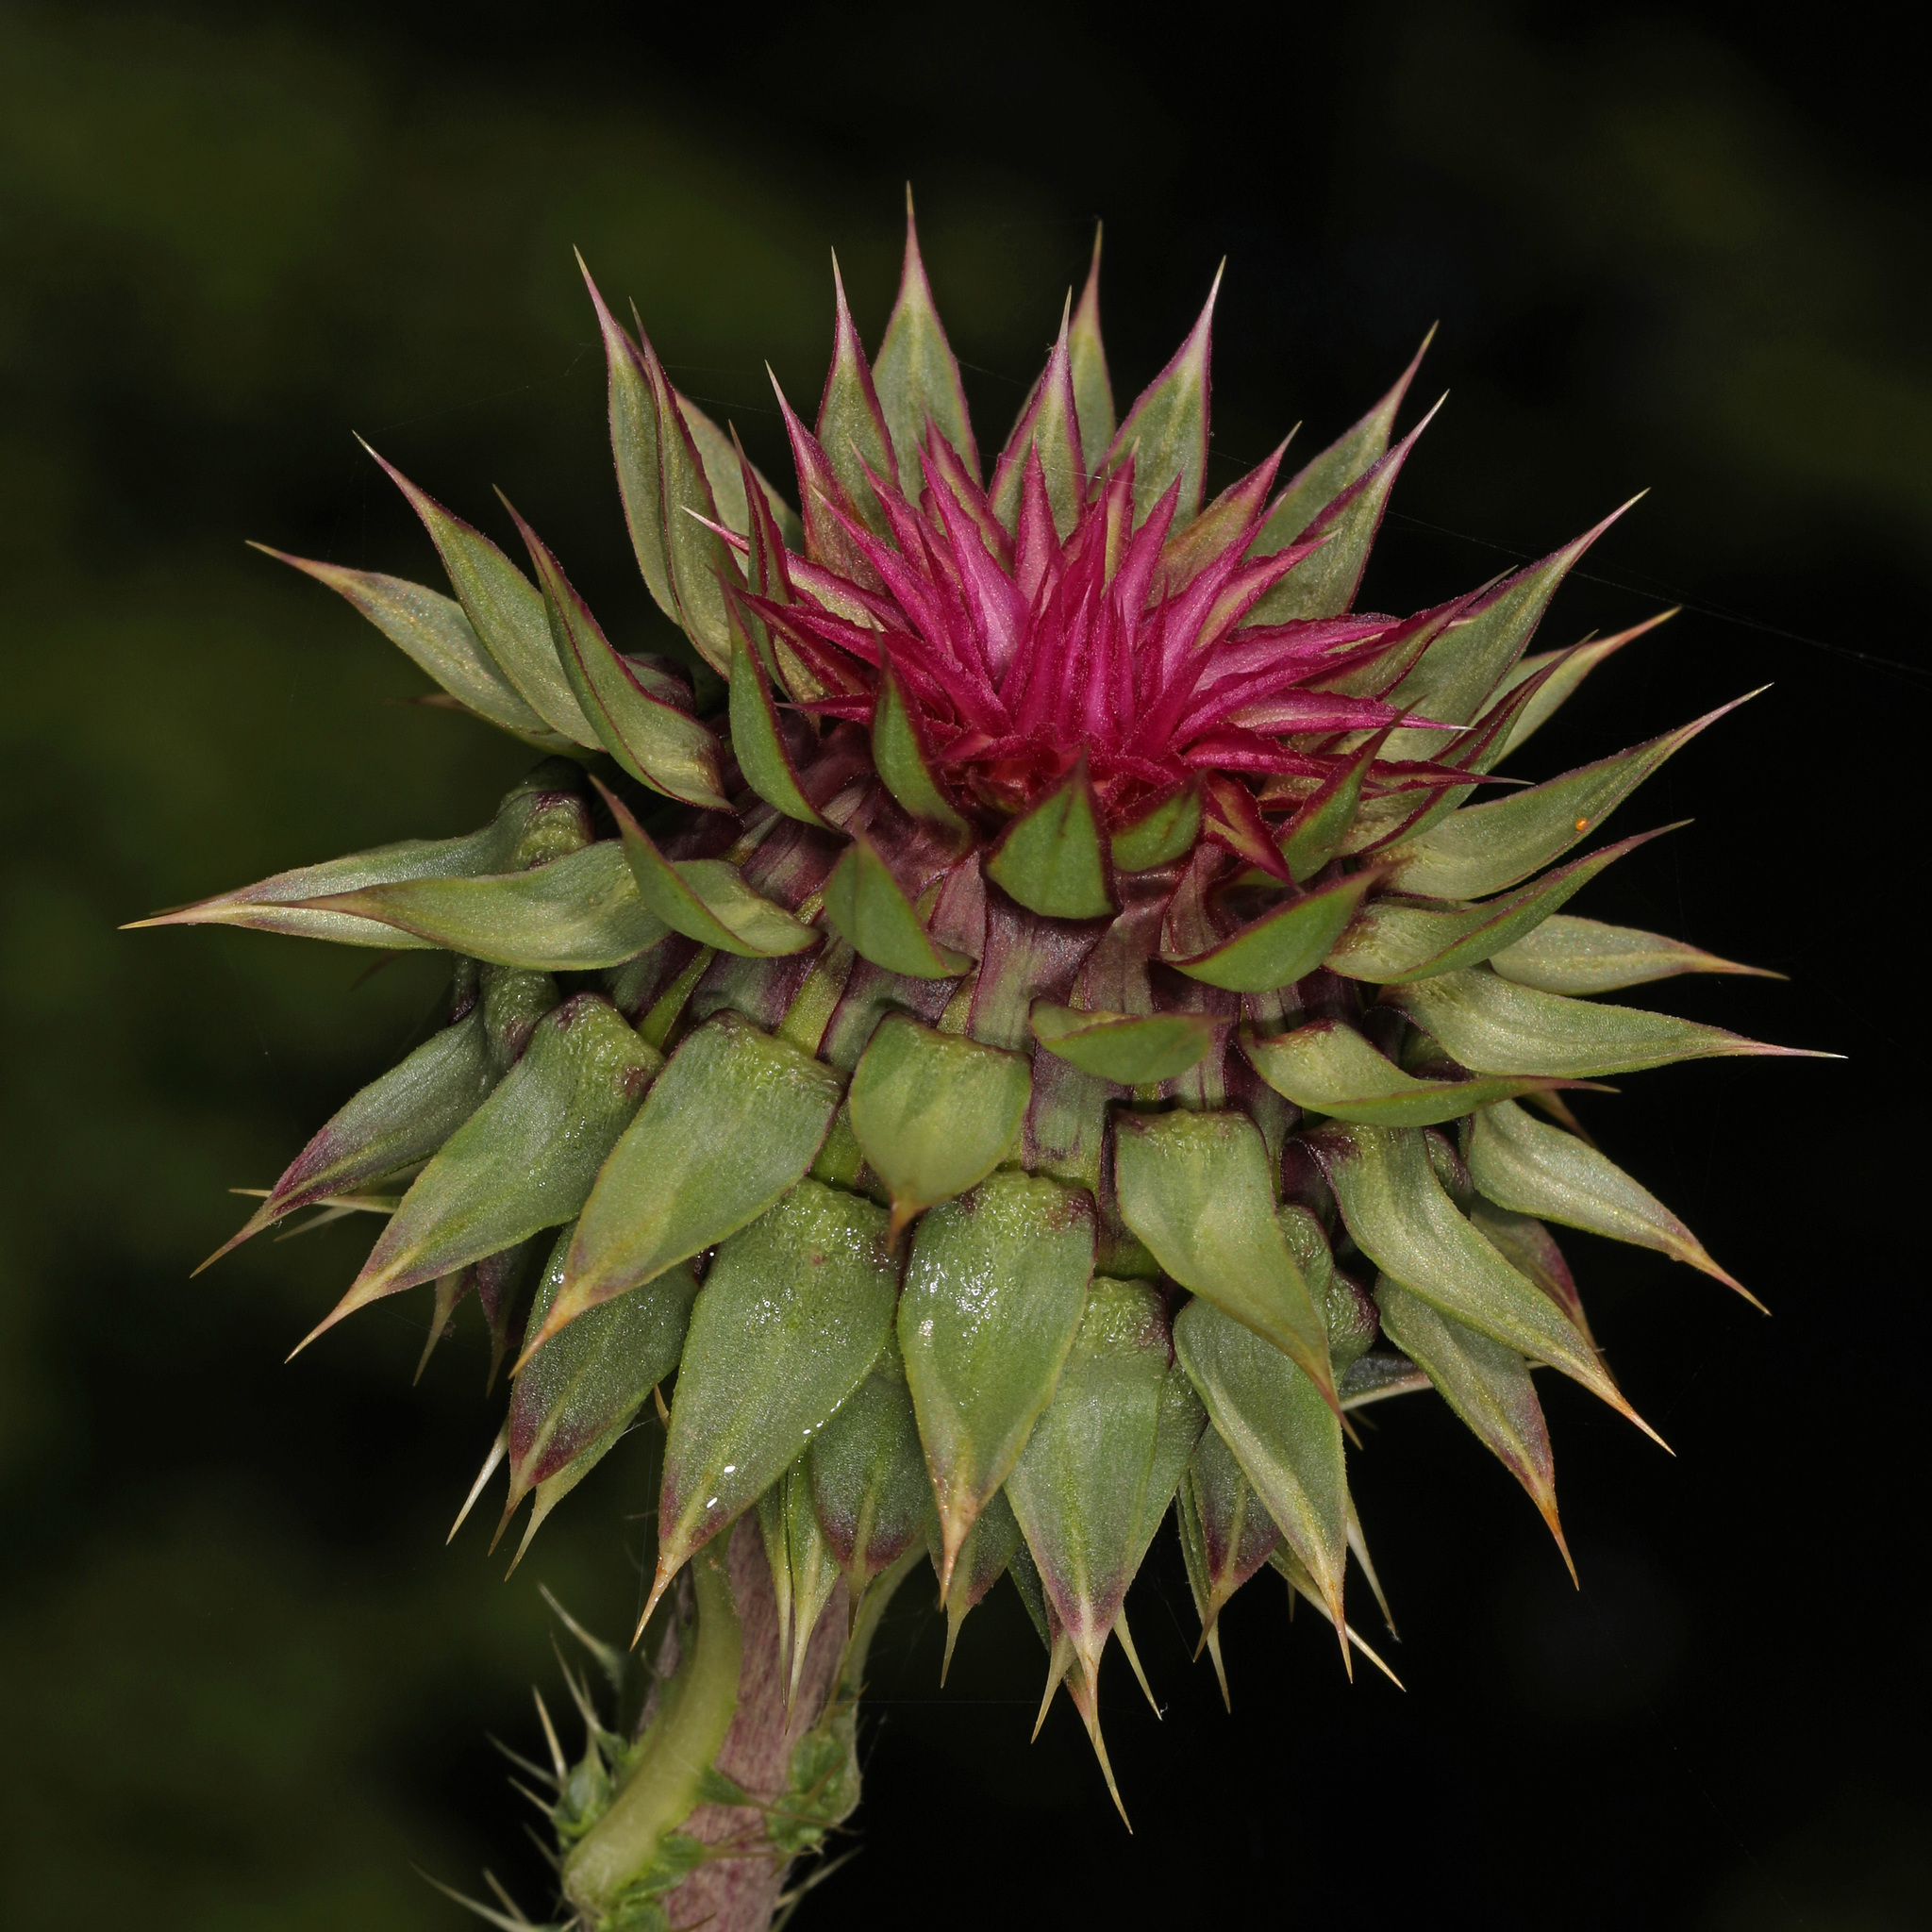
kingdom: Plantae
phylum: Tracheophyta
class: Magnoliopsida
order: Asterales
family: Asteraceae
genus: Carduus
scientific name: Carduus nutans
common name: Musk thistle
